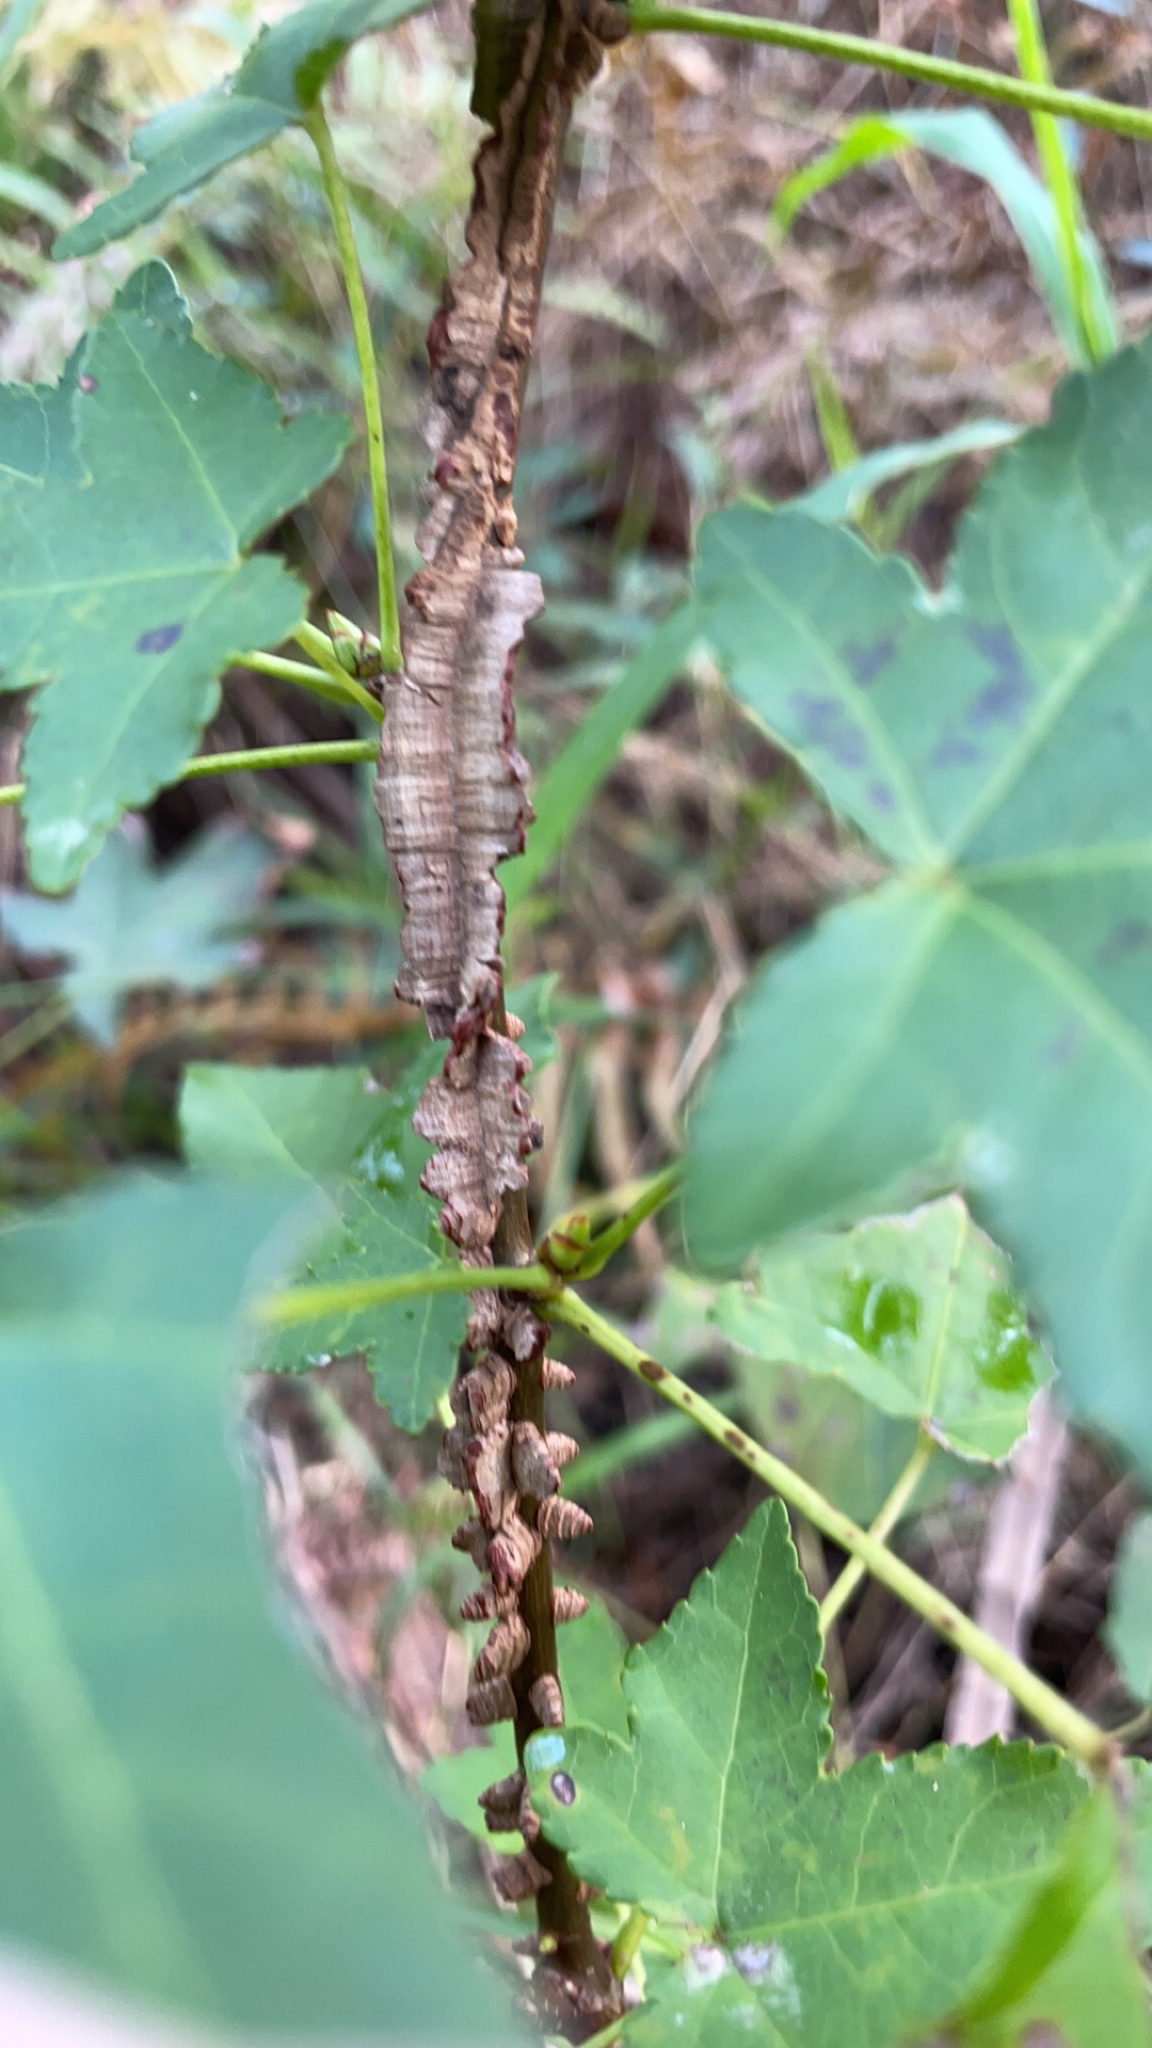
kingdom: Plantae
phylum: Tracheophyta
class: Magnoliopsida
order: Saxifragales
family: Altingiaceae
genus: Liquidambar
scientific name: Liquidambar styraciflua
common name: Sweet gum
